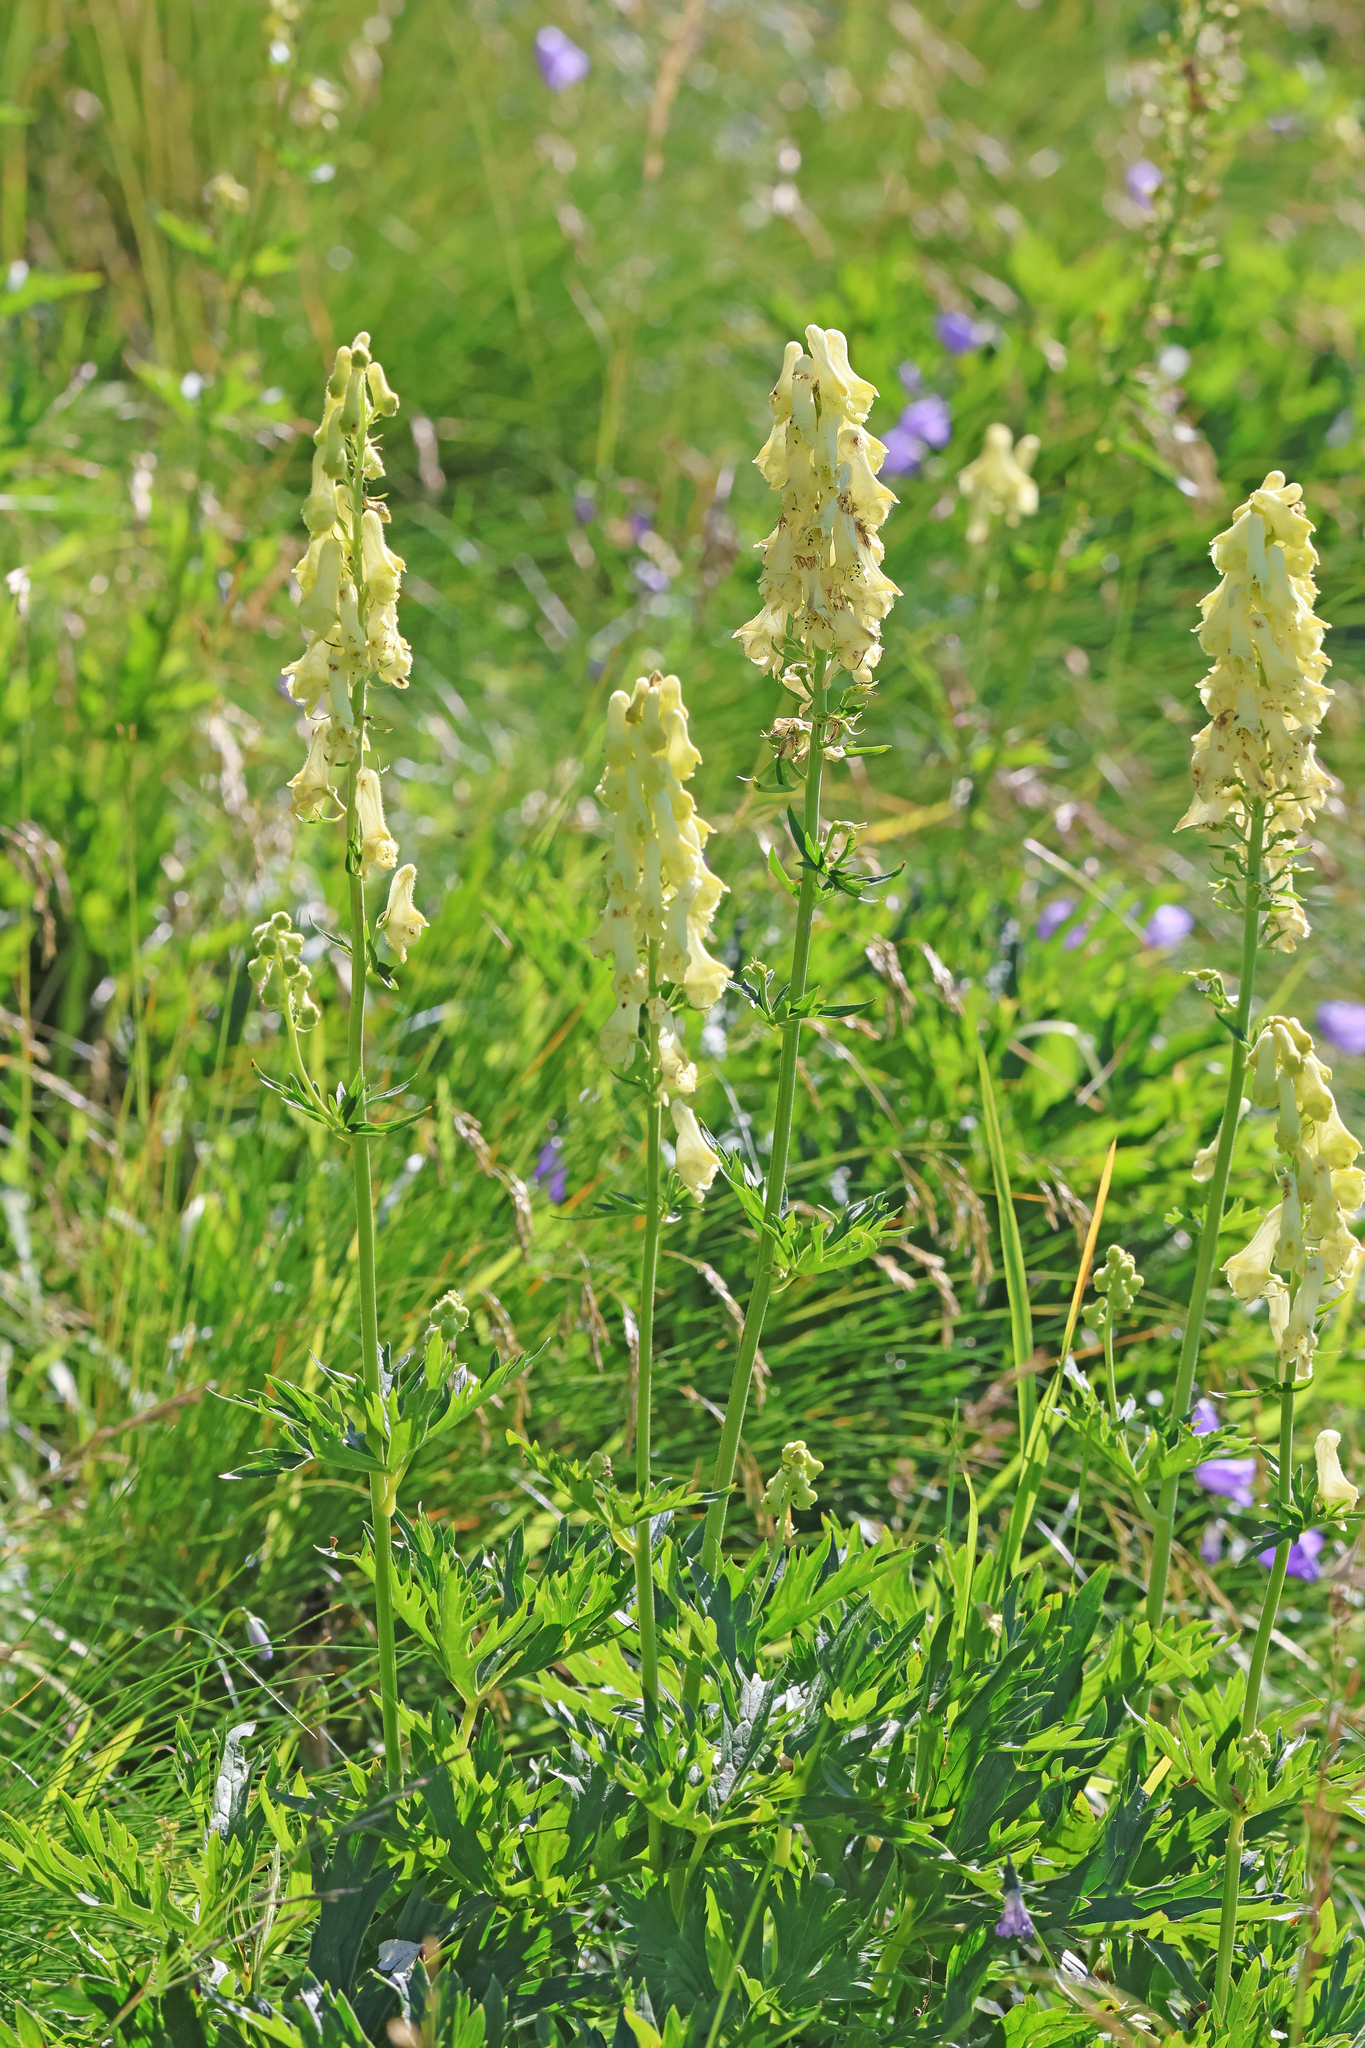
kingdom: Plantae
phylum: Tracheophyta
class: Magnoliopsida
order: Ranunculales
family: Ranunculaceae
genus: Aconitum
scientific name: Aconitum lamarckii
